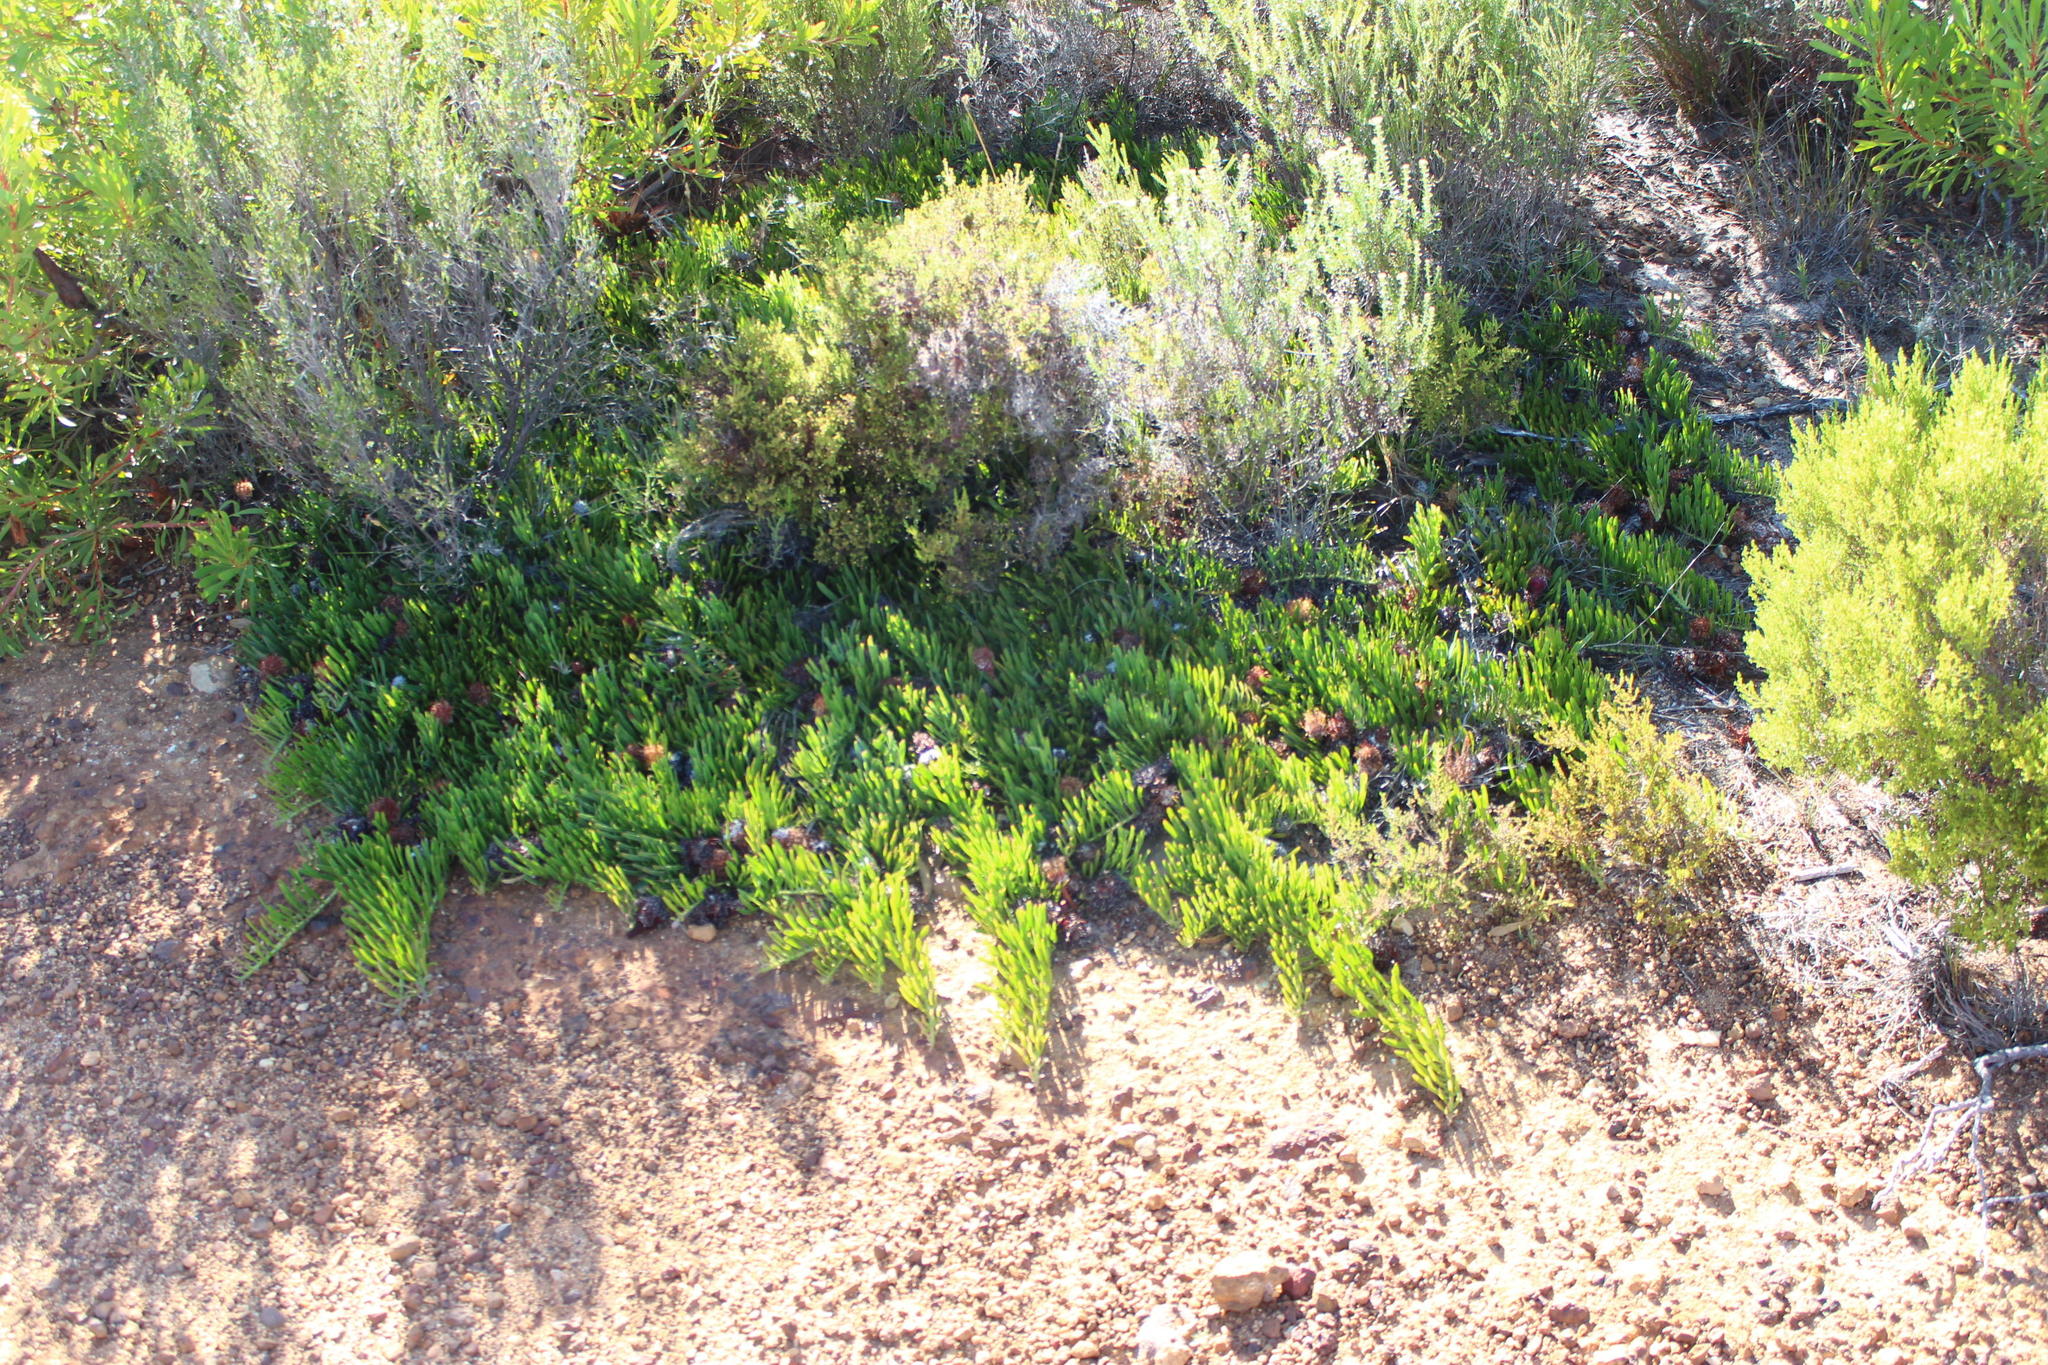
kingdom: Plantae
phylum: Tracheophyta
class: Magnoliopsida
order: Proteales
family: Proteaceae
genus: Leucospermum
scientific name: Leucospermum hypophyllocarpodendron
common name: Snakestem pincushion
